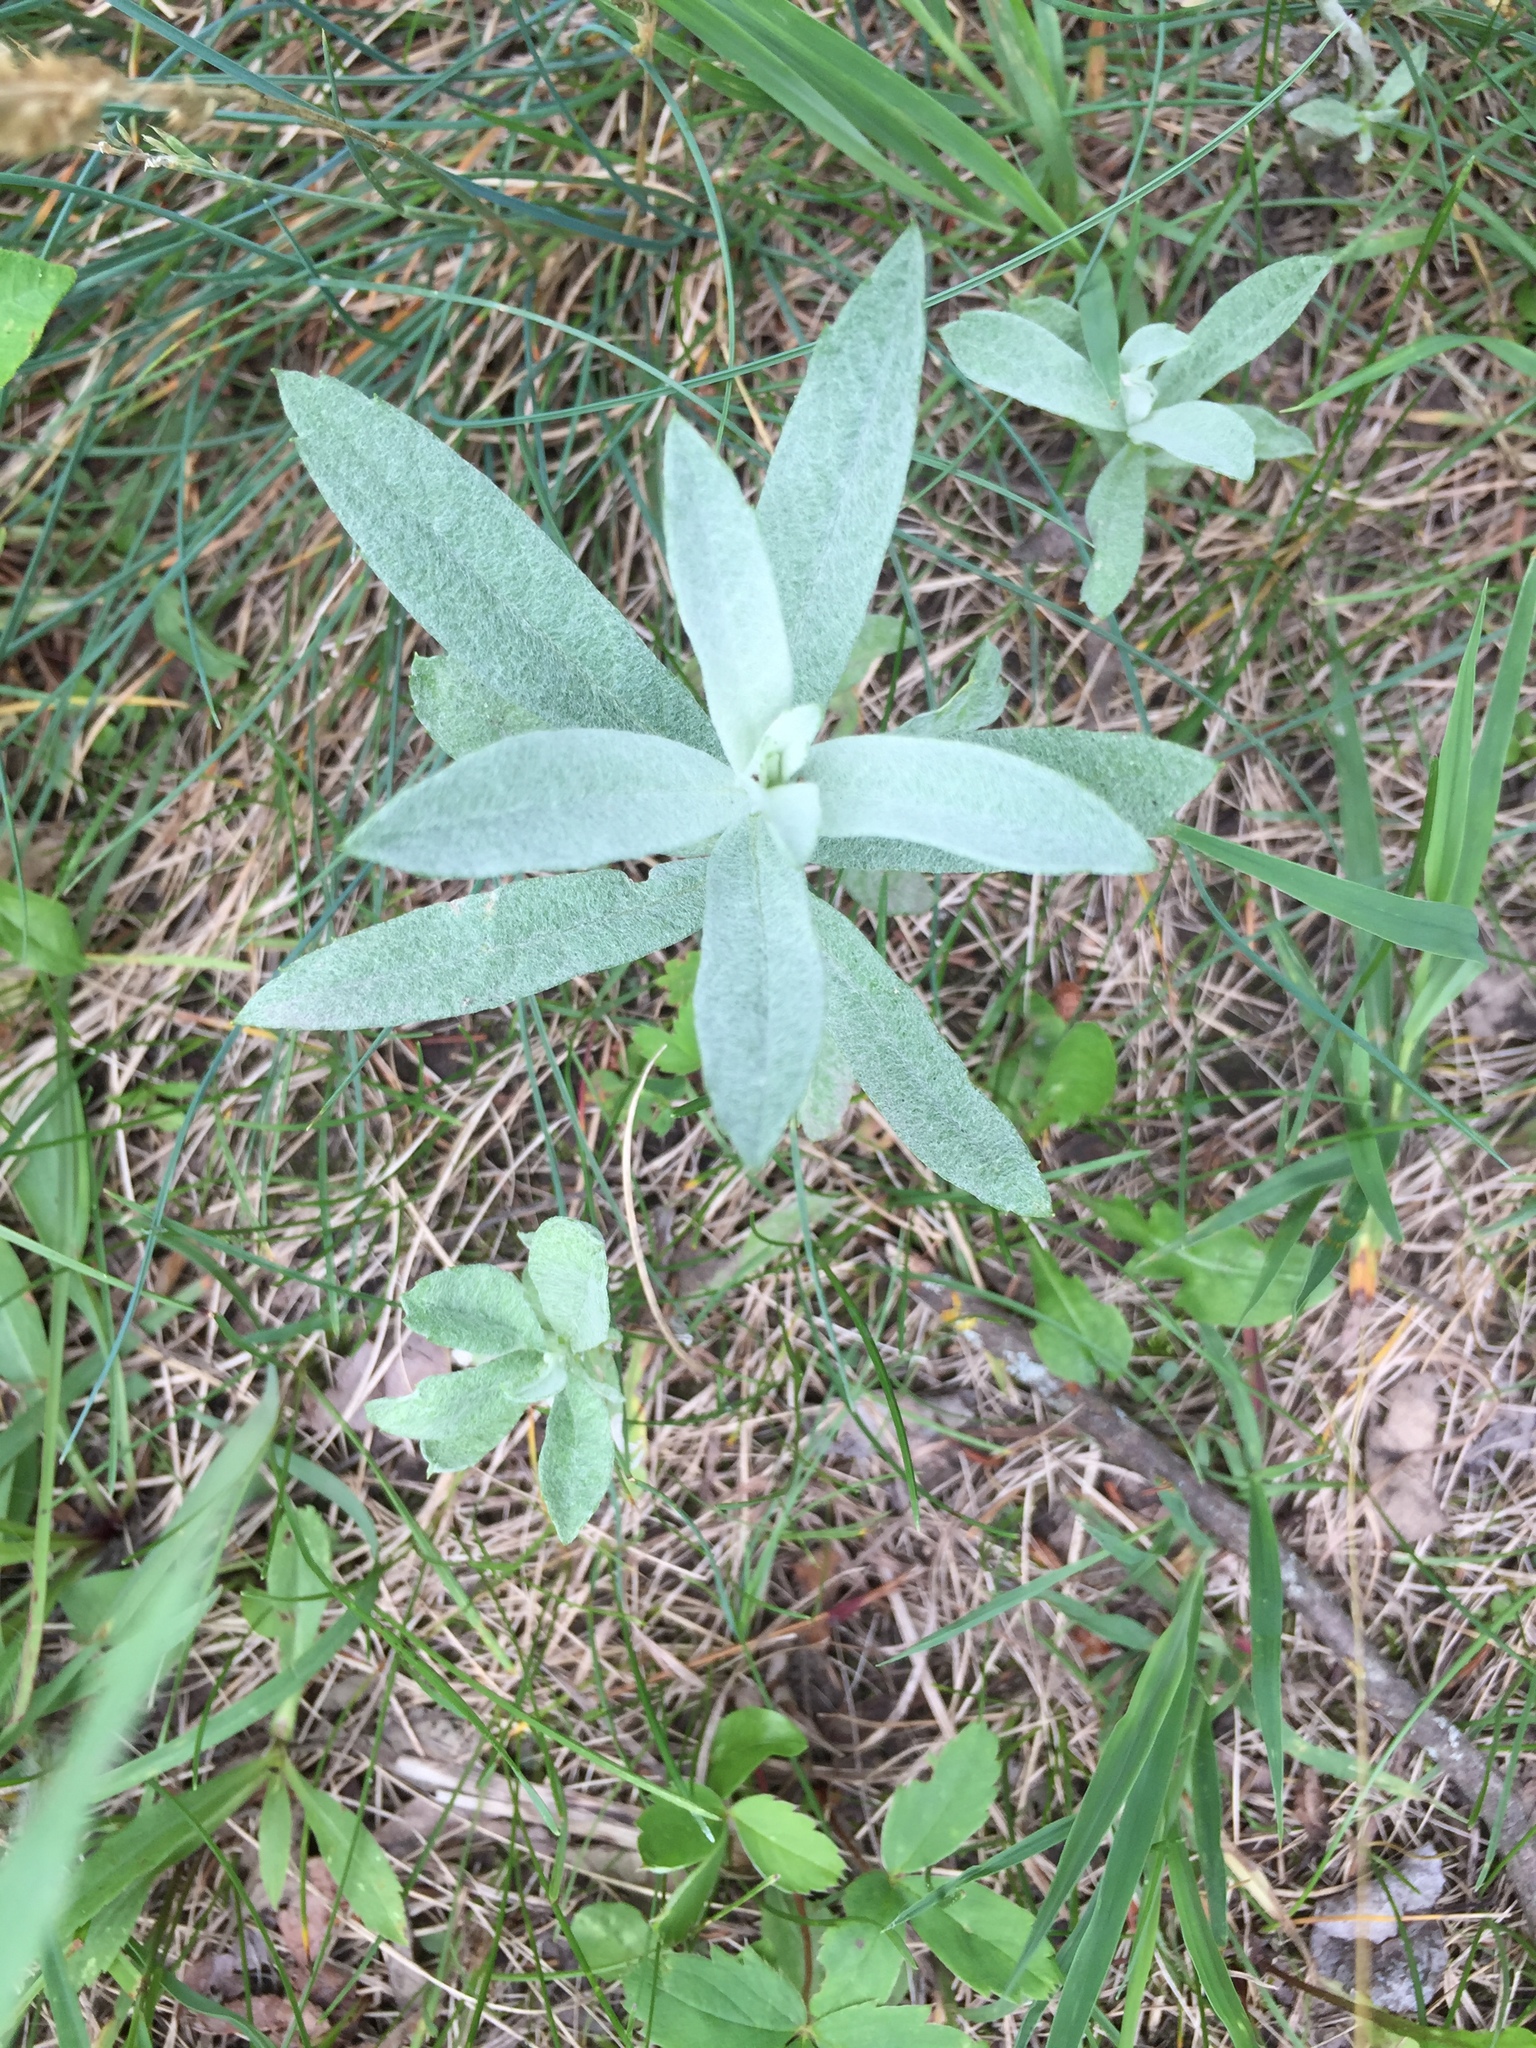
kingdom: Plantae
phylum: Tracheophyta
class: Magnoliopsida
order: Asterales
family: Asteraceae
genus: Artemisia
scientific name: Artemisia ludoviciana
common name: Western mugwort
